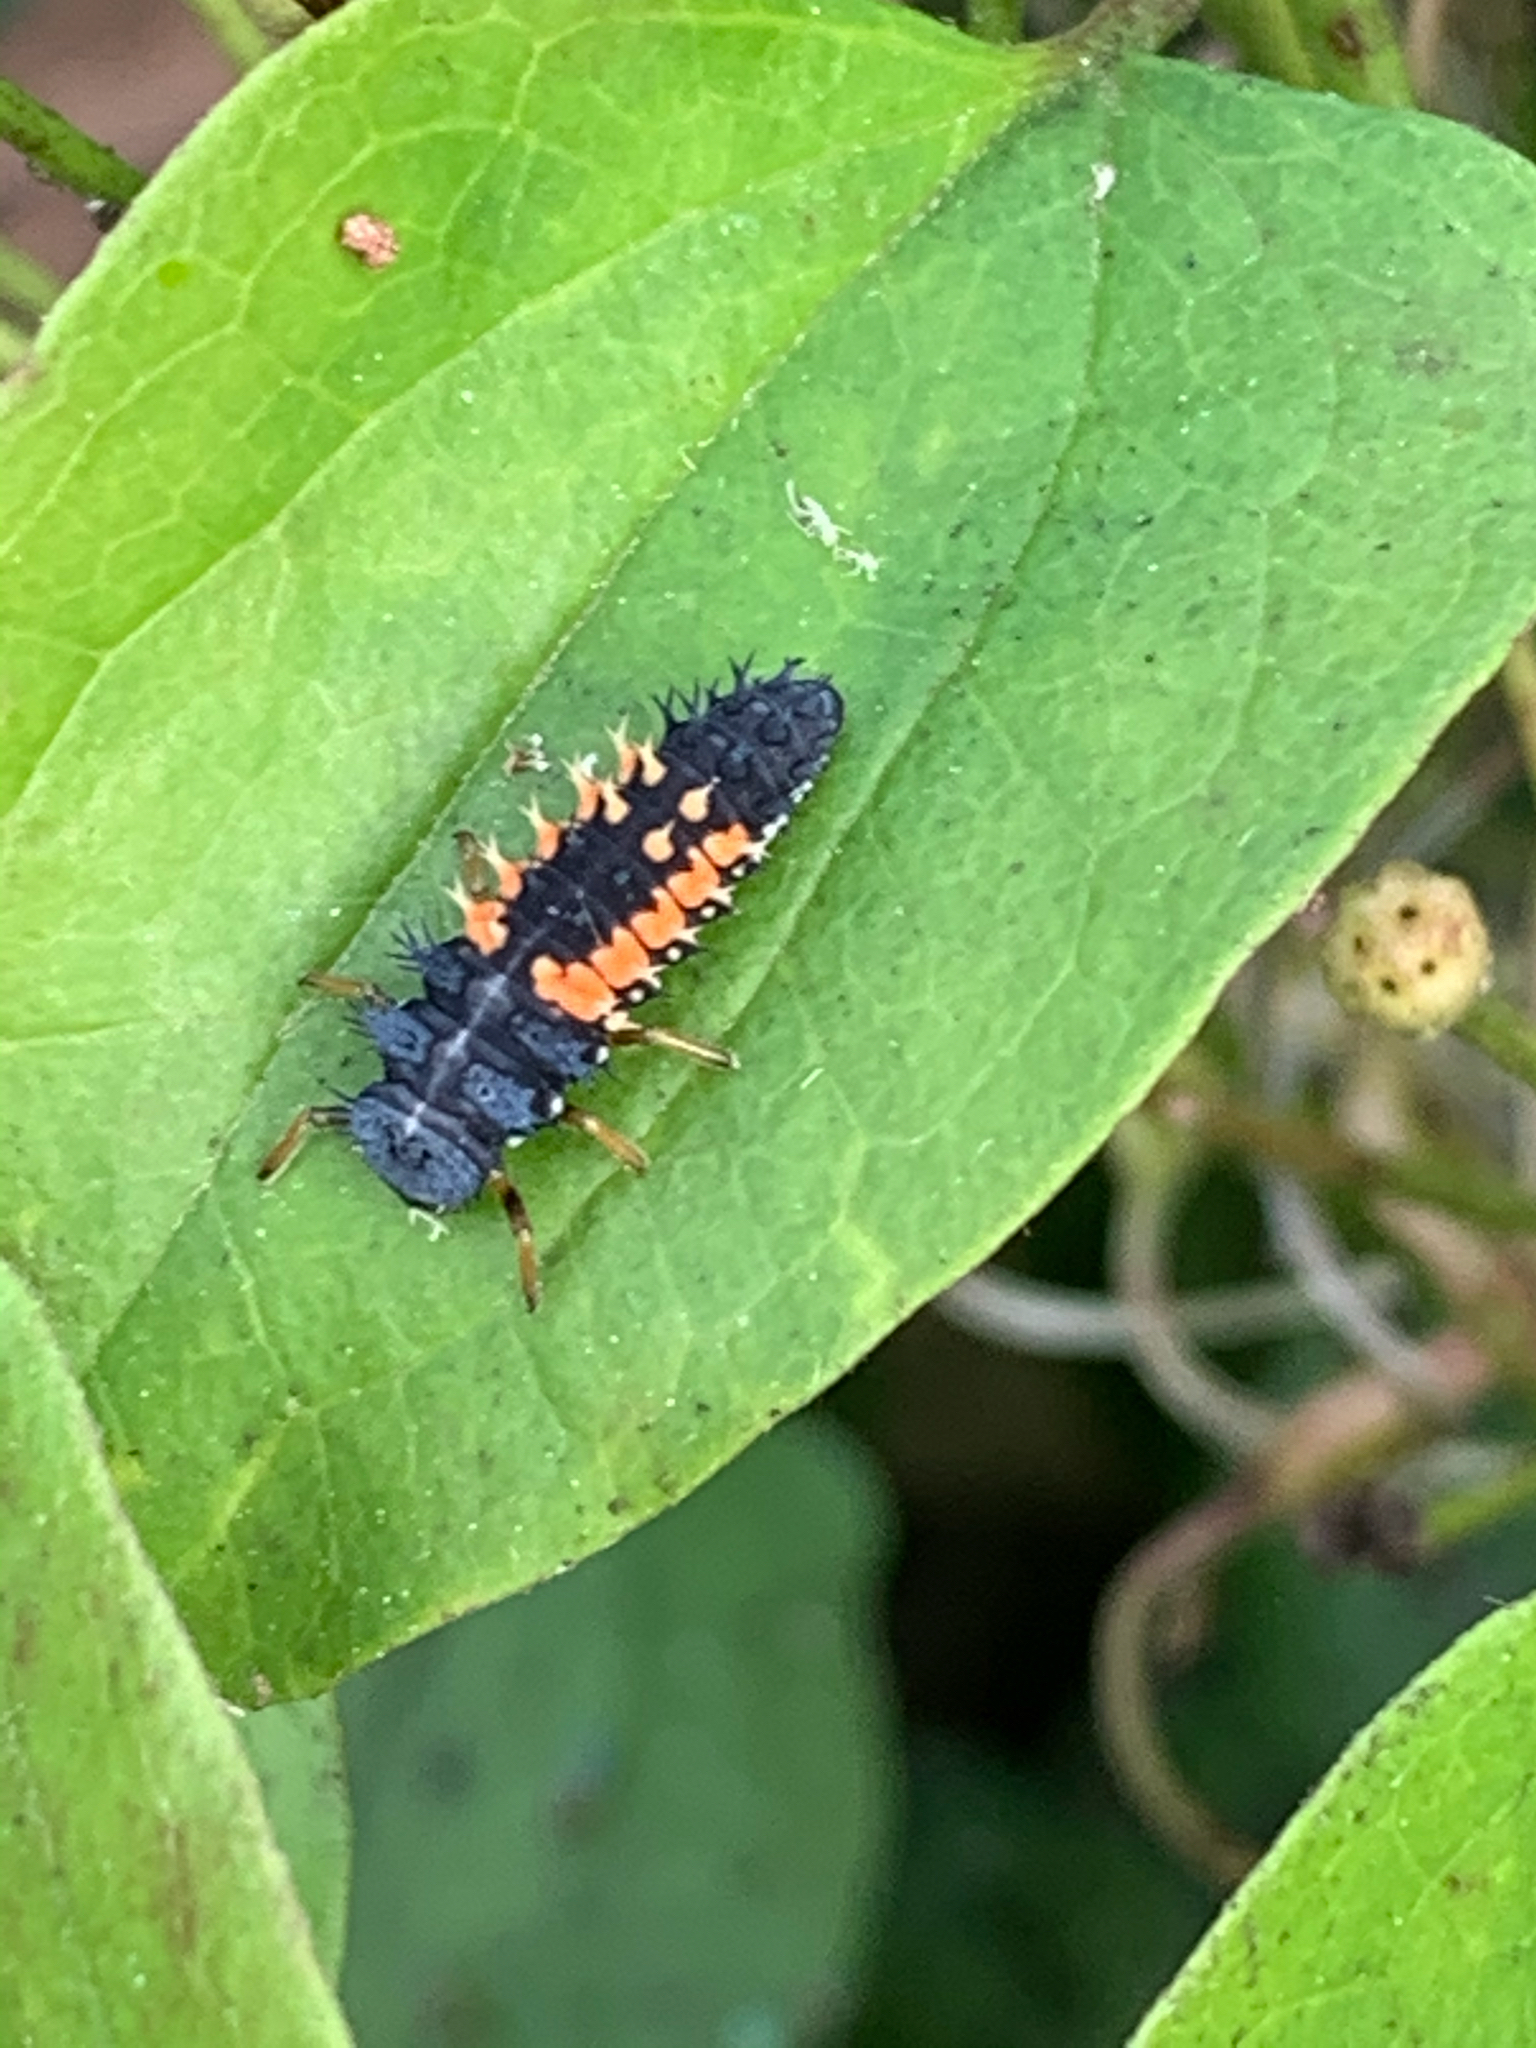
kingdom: Animalia
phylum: Arthropoda
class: Insecta
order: Coleoptera
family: Coccinellidae
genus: Harmonia
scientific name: Harmonia axyridis
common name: Harlequin ladybird
